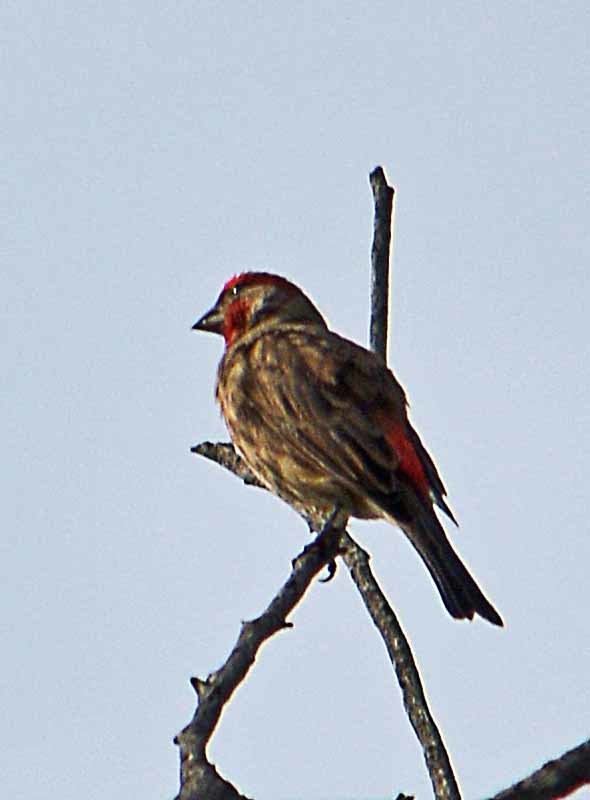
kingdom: Animalia
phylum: Chordata
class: Aves
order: Passeriformes
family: Fringillidae
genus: Haemorhous
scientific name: Haemorhous mexicanus
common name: House finch
